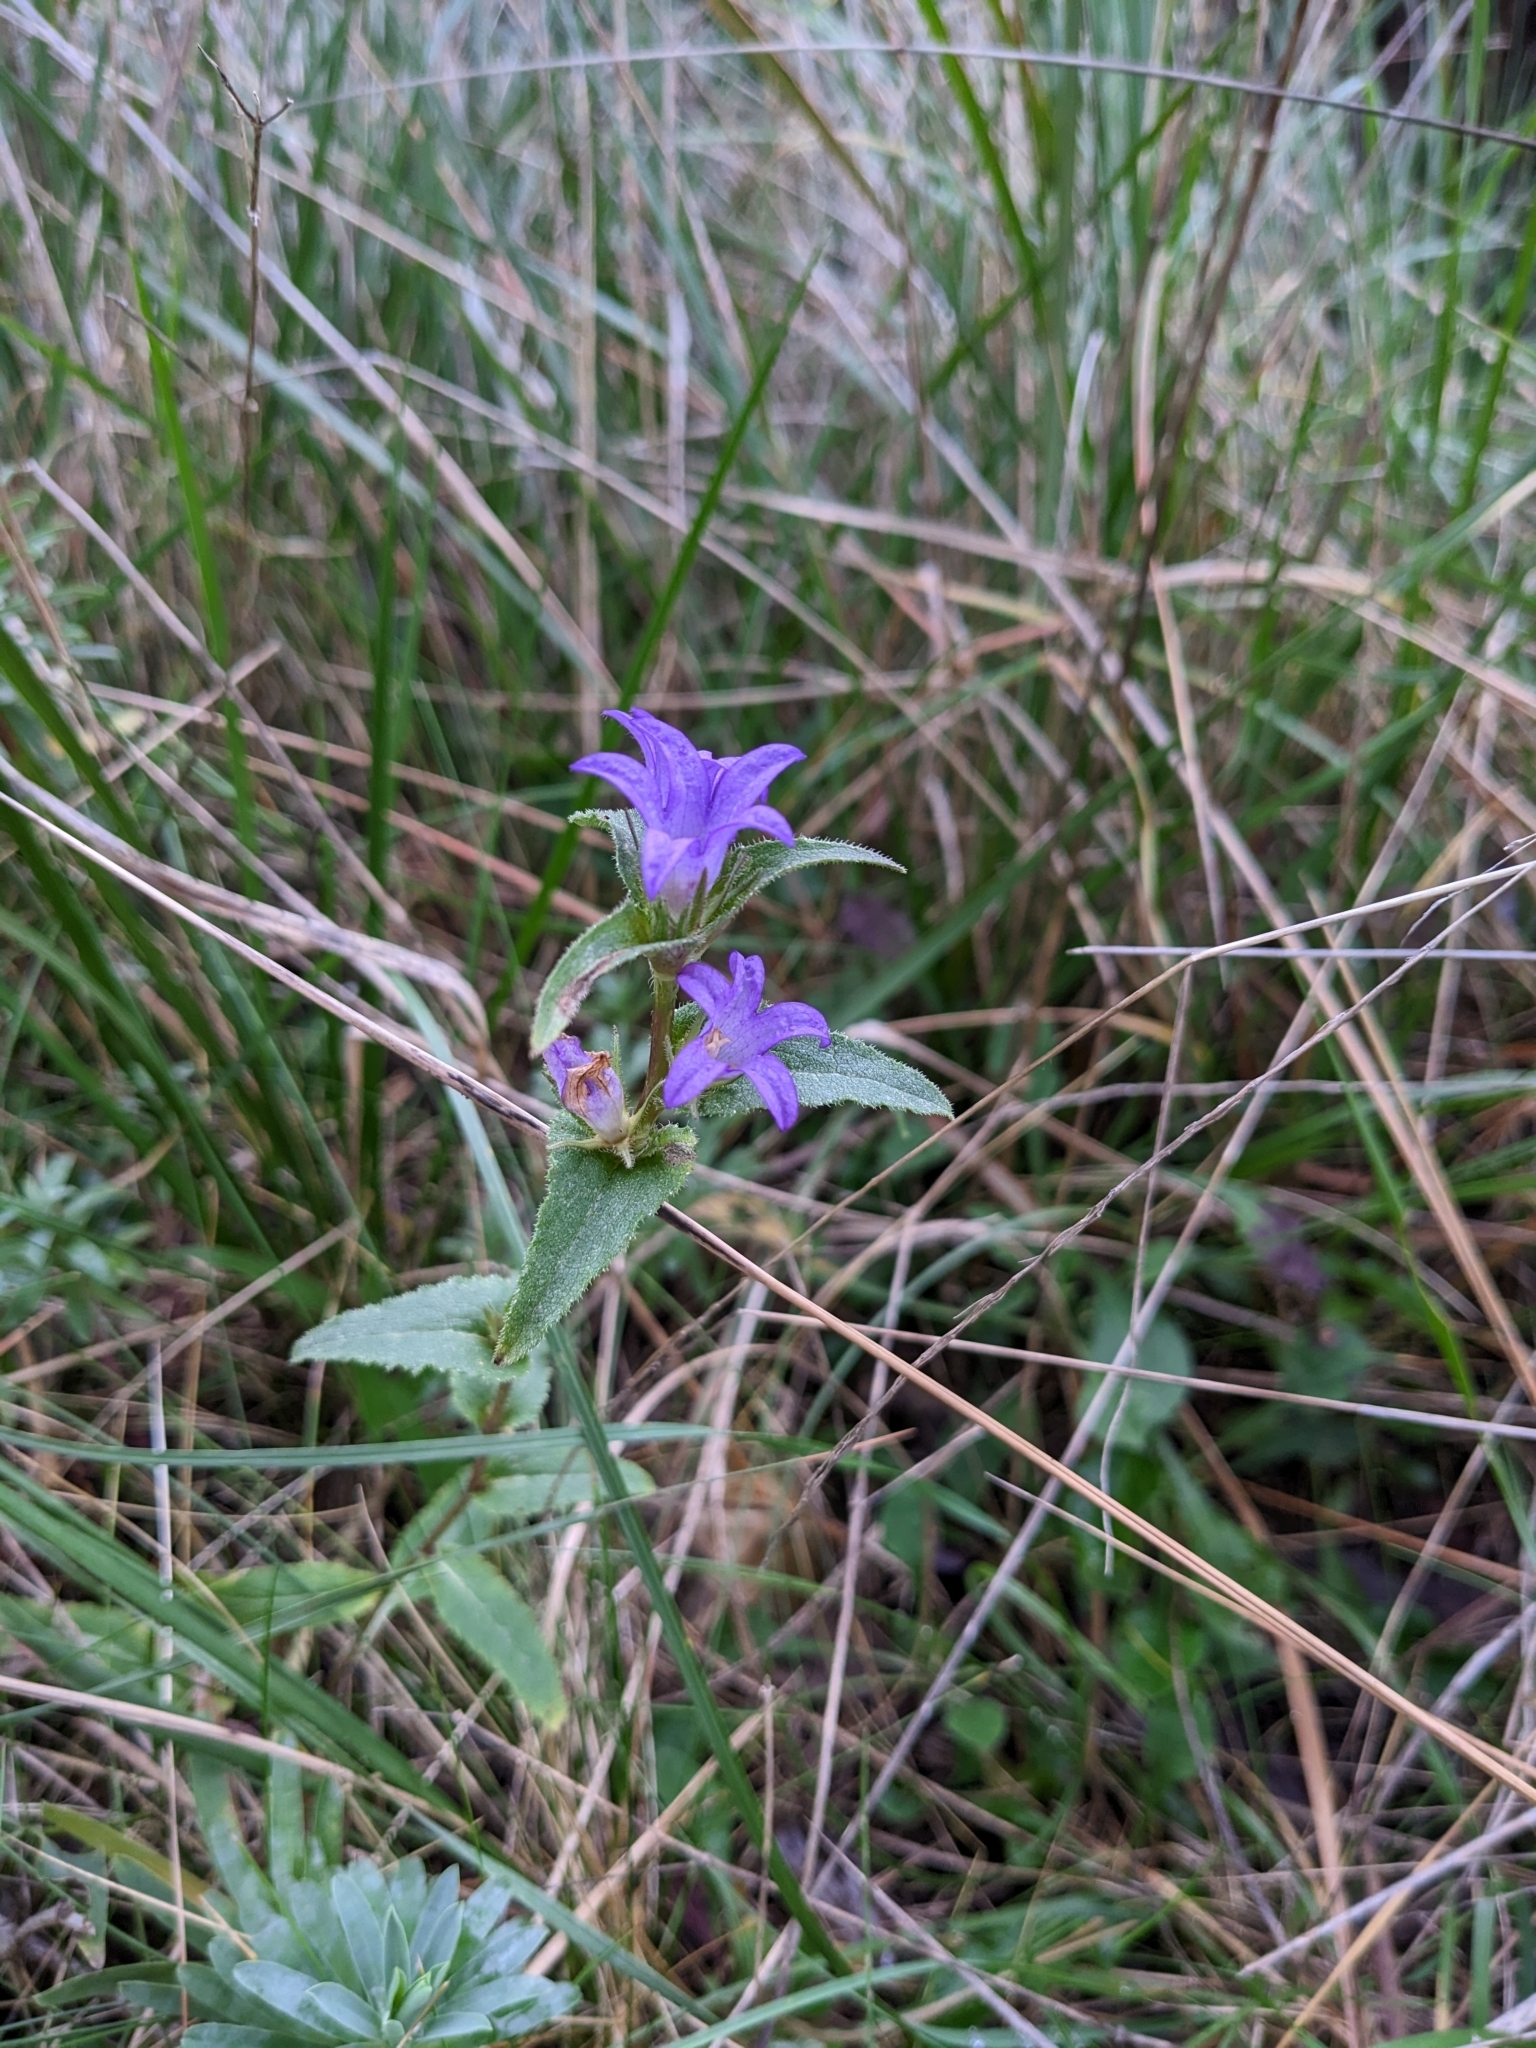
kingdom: Plantae
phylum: Tracheophyta
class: Magnoliopsida
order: Asterales
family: Campanulaceae
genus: Campanula
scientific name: Campanula glomerata
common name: Clustered bellflower
